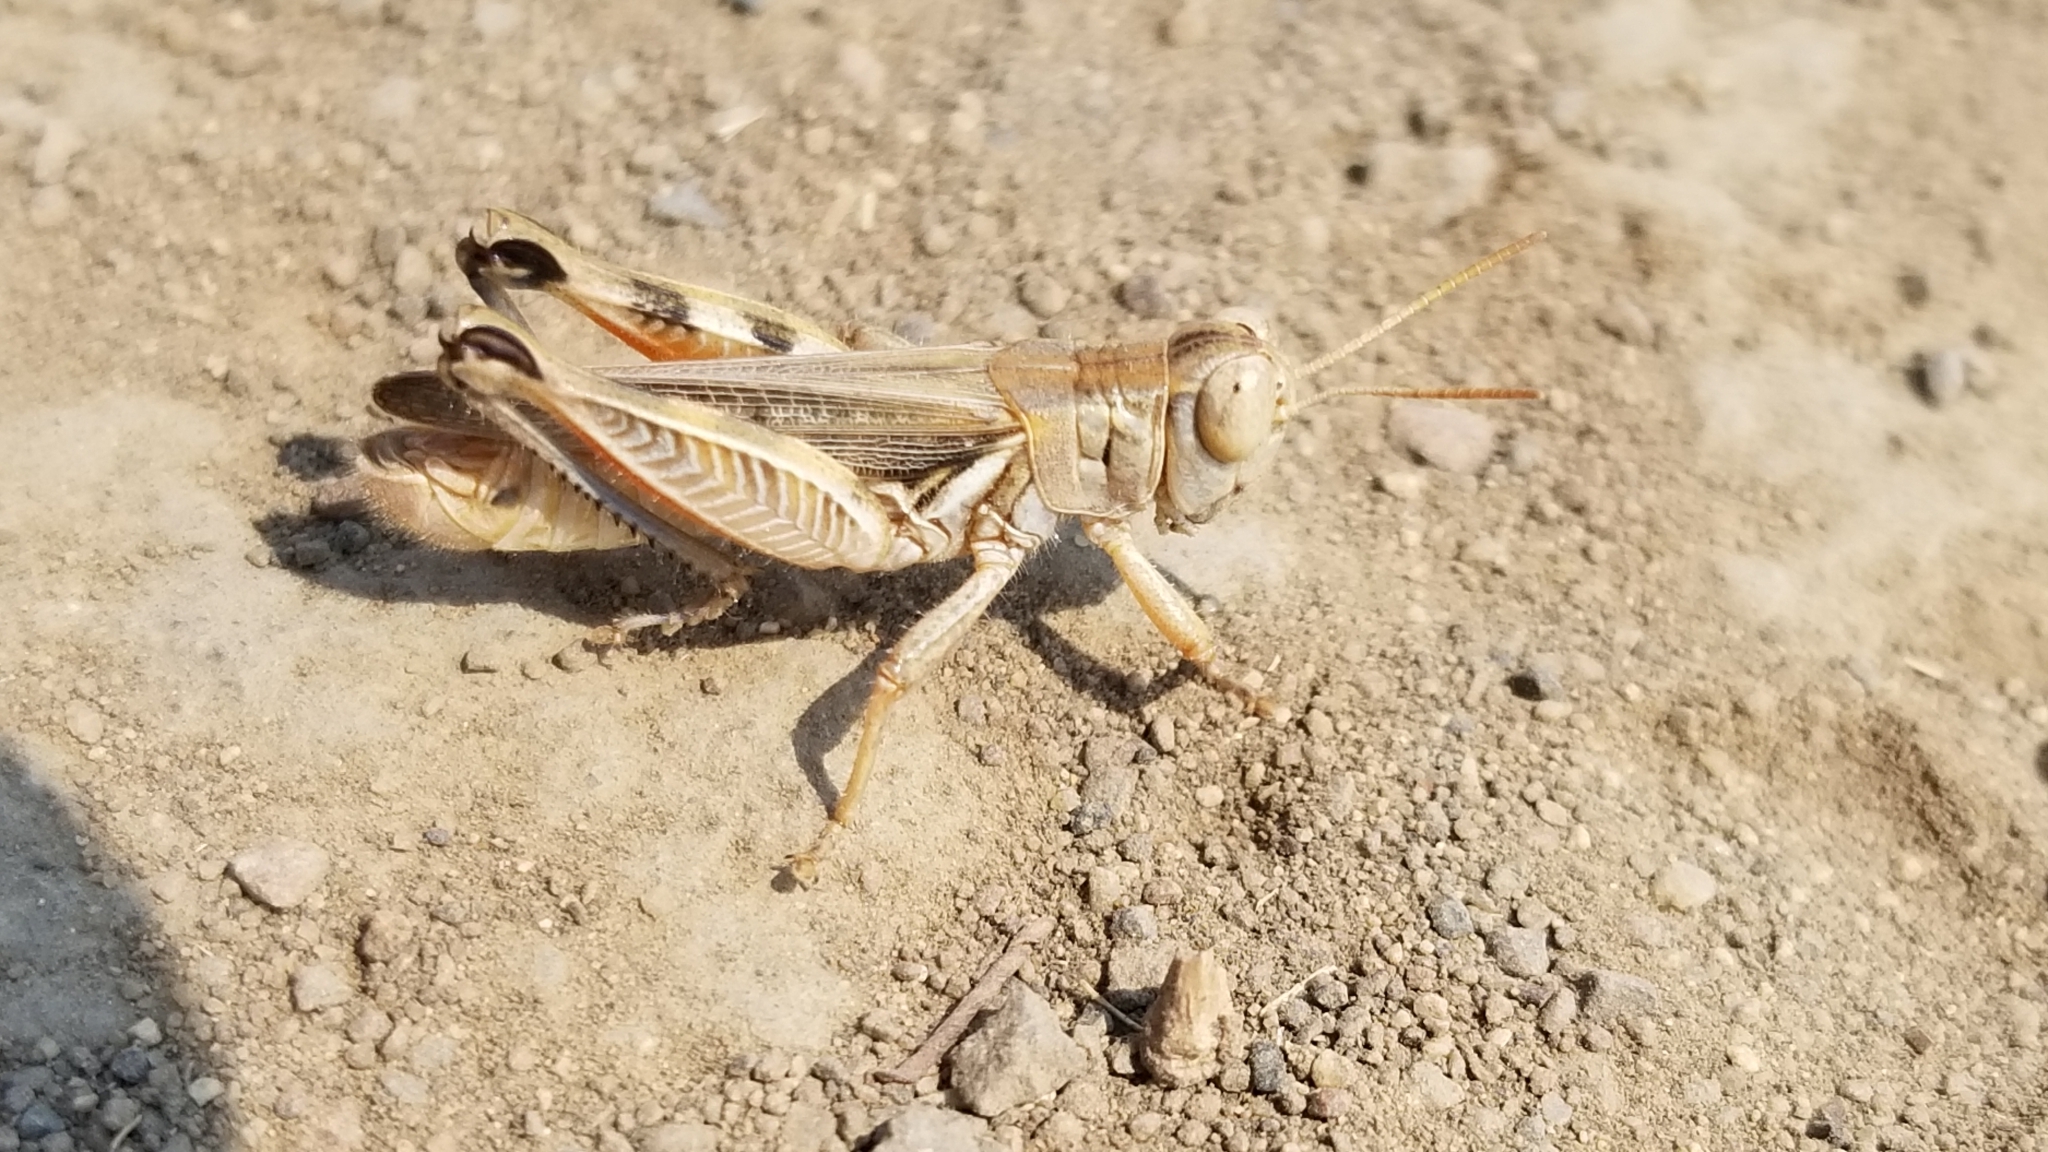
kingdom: Animalia
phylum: Arthropoda
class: Insecta
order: Orthoptera
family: Acrididae
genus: Melanoplus
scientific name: Melanoplus devastator
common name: Devastating grasshopper
